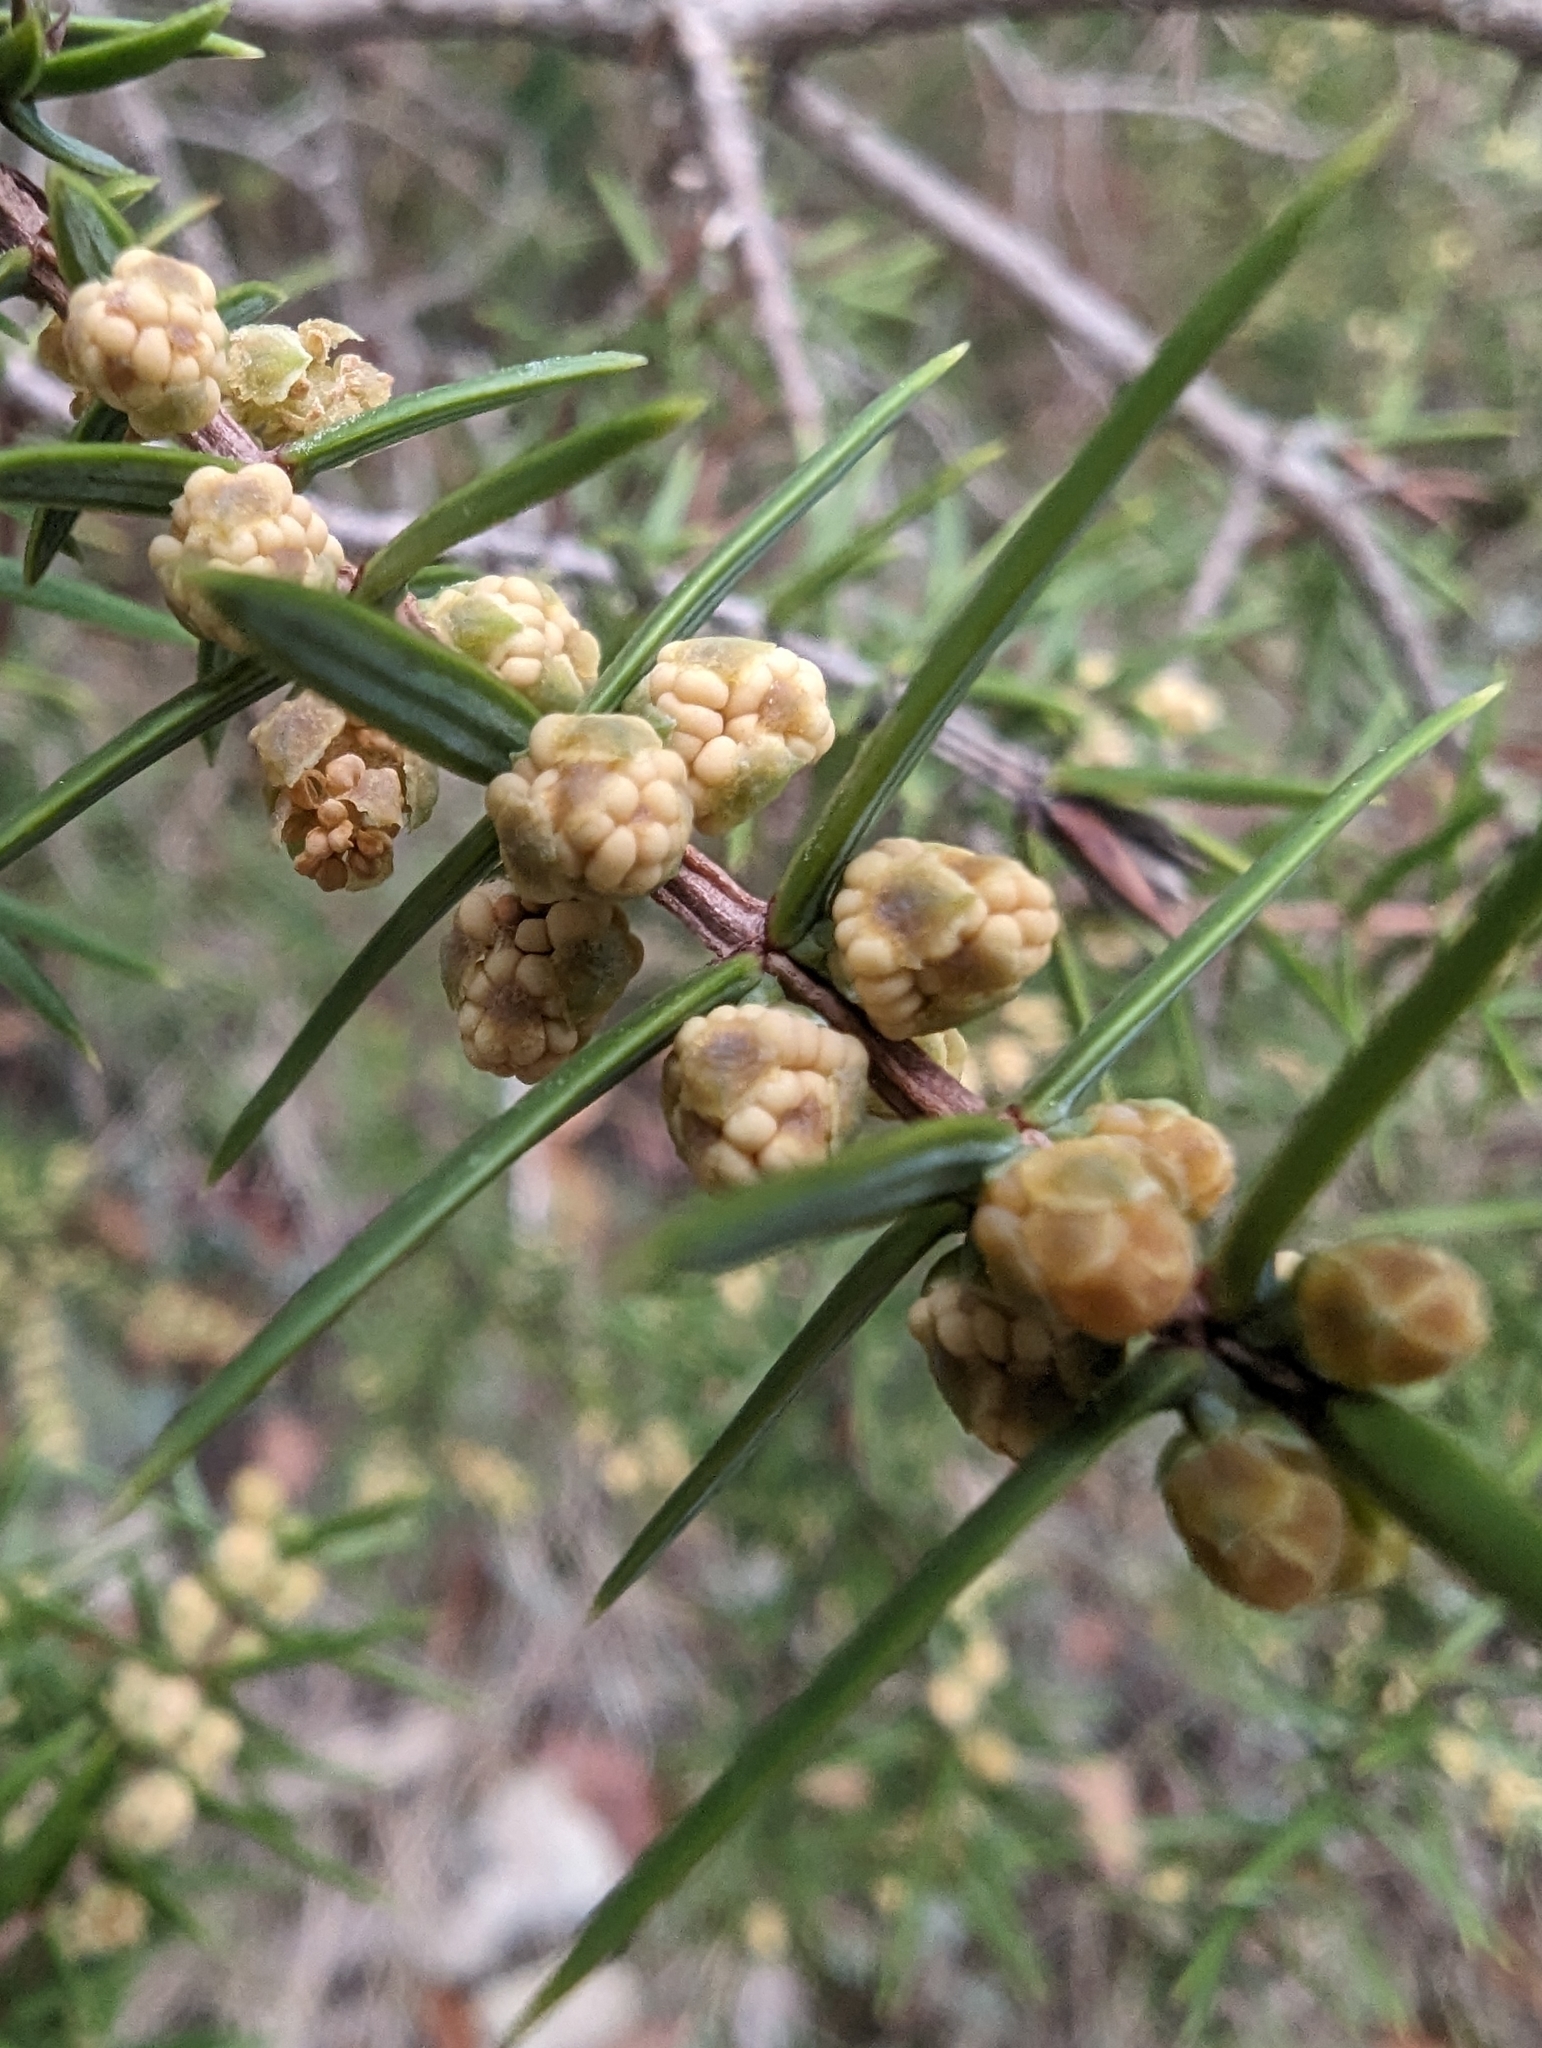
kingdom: Plantae
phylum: Tracheophyta
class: Pinopsida
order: Pinales
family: Cupressaceae
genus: Juniperus
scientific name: Juniperus oxycedrus
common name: Prickly juniper
